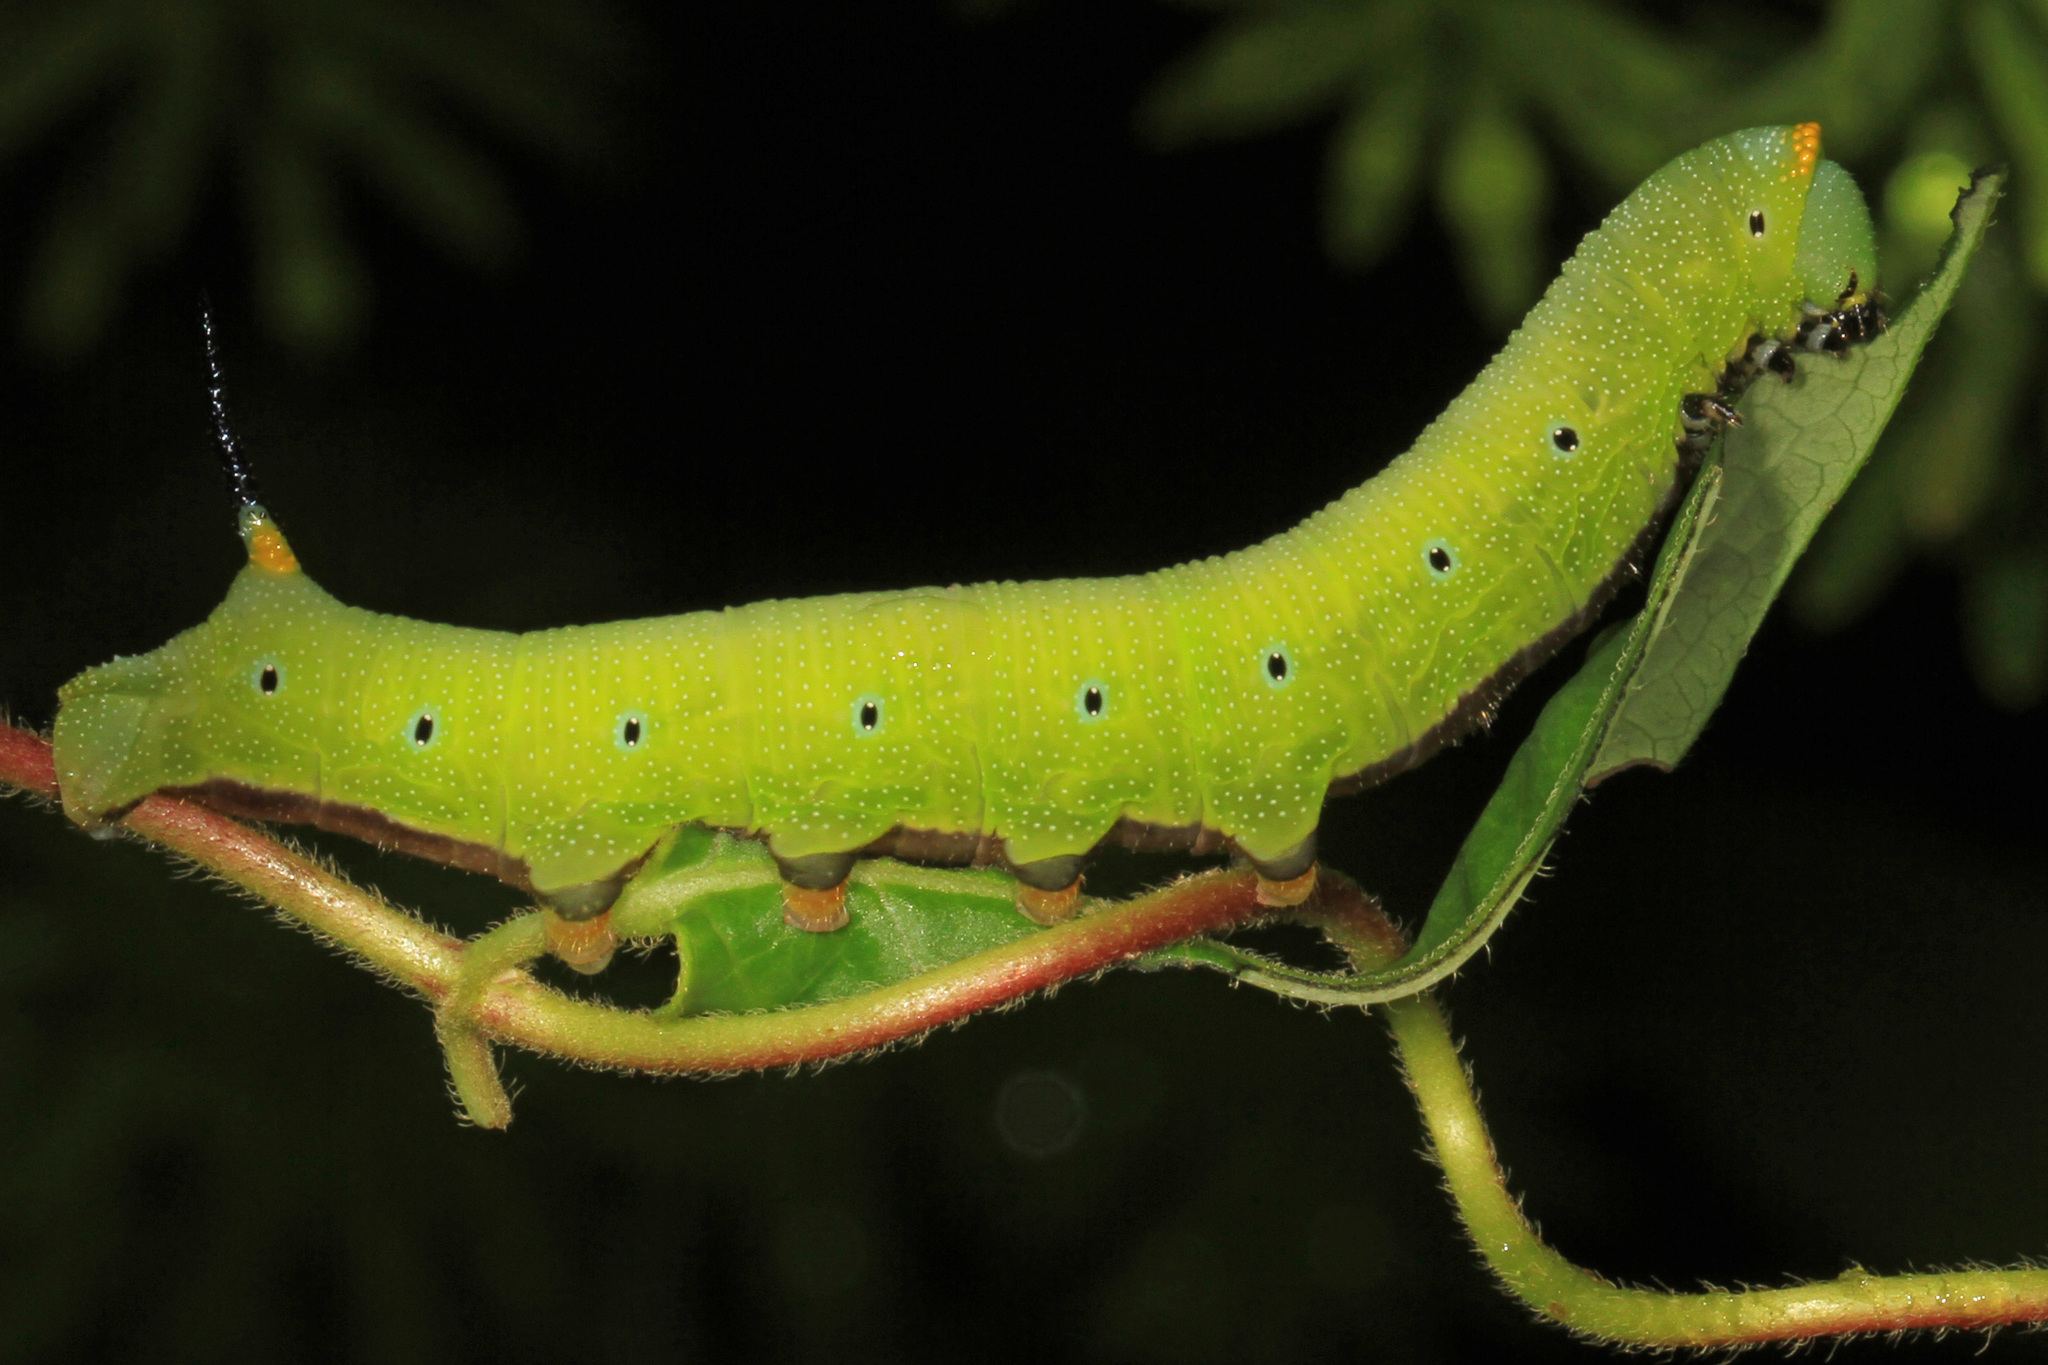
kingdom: Animalia
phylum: Arthropoda
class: Insecta
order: Lepidoptera
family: Sphingidae
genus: Hemaris
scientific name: Hemaris diffinis
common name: Bumblebee moth
